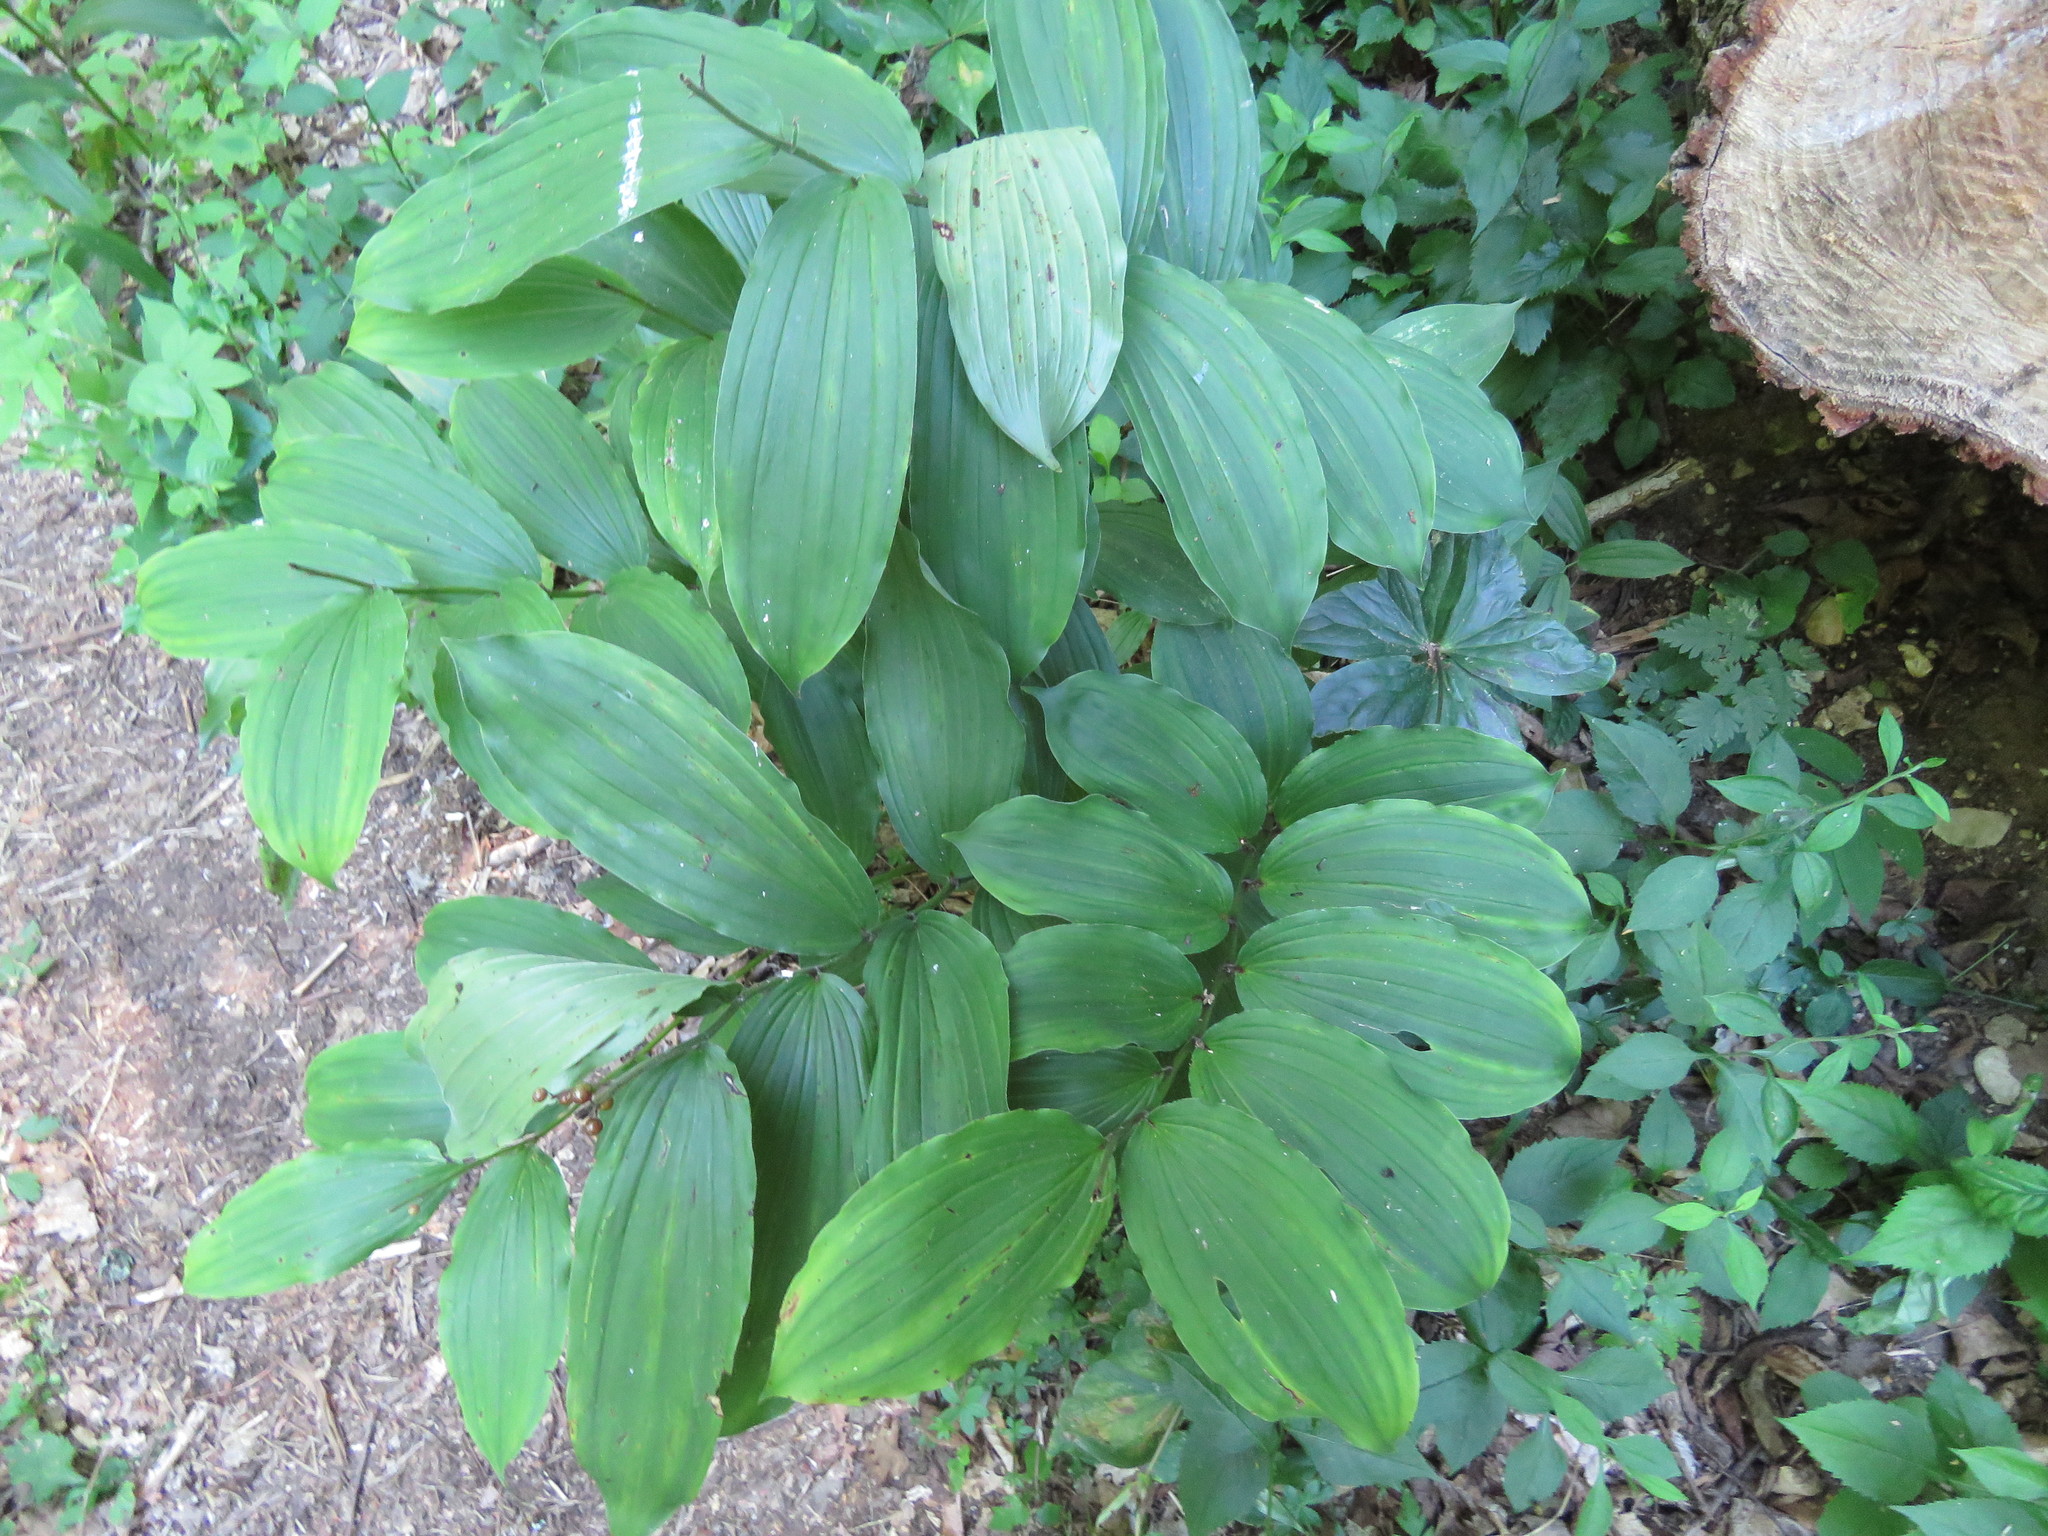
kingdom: Plantae
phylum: Tracheophyta
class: Liliopsida
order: Asparagales
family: Asparagaceae
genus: Maianthemum
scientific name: Maianthemum racemosum
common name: False spikenard
